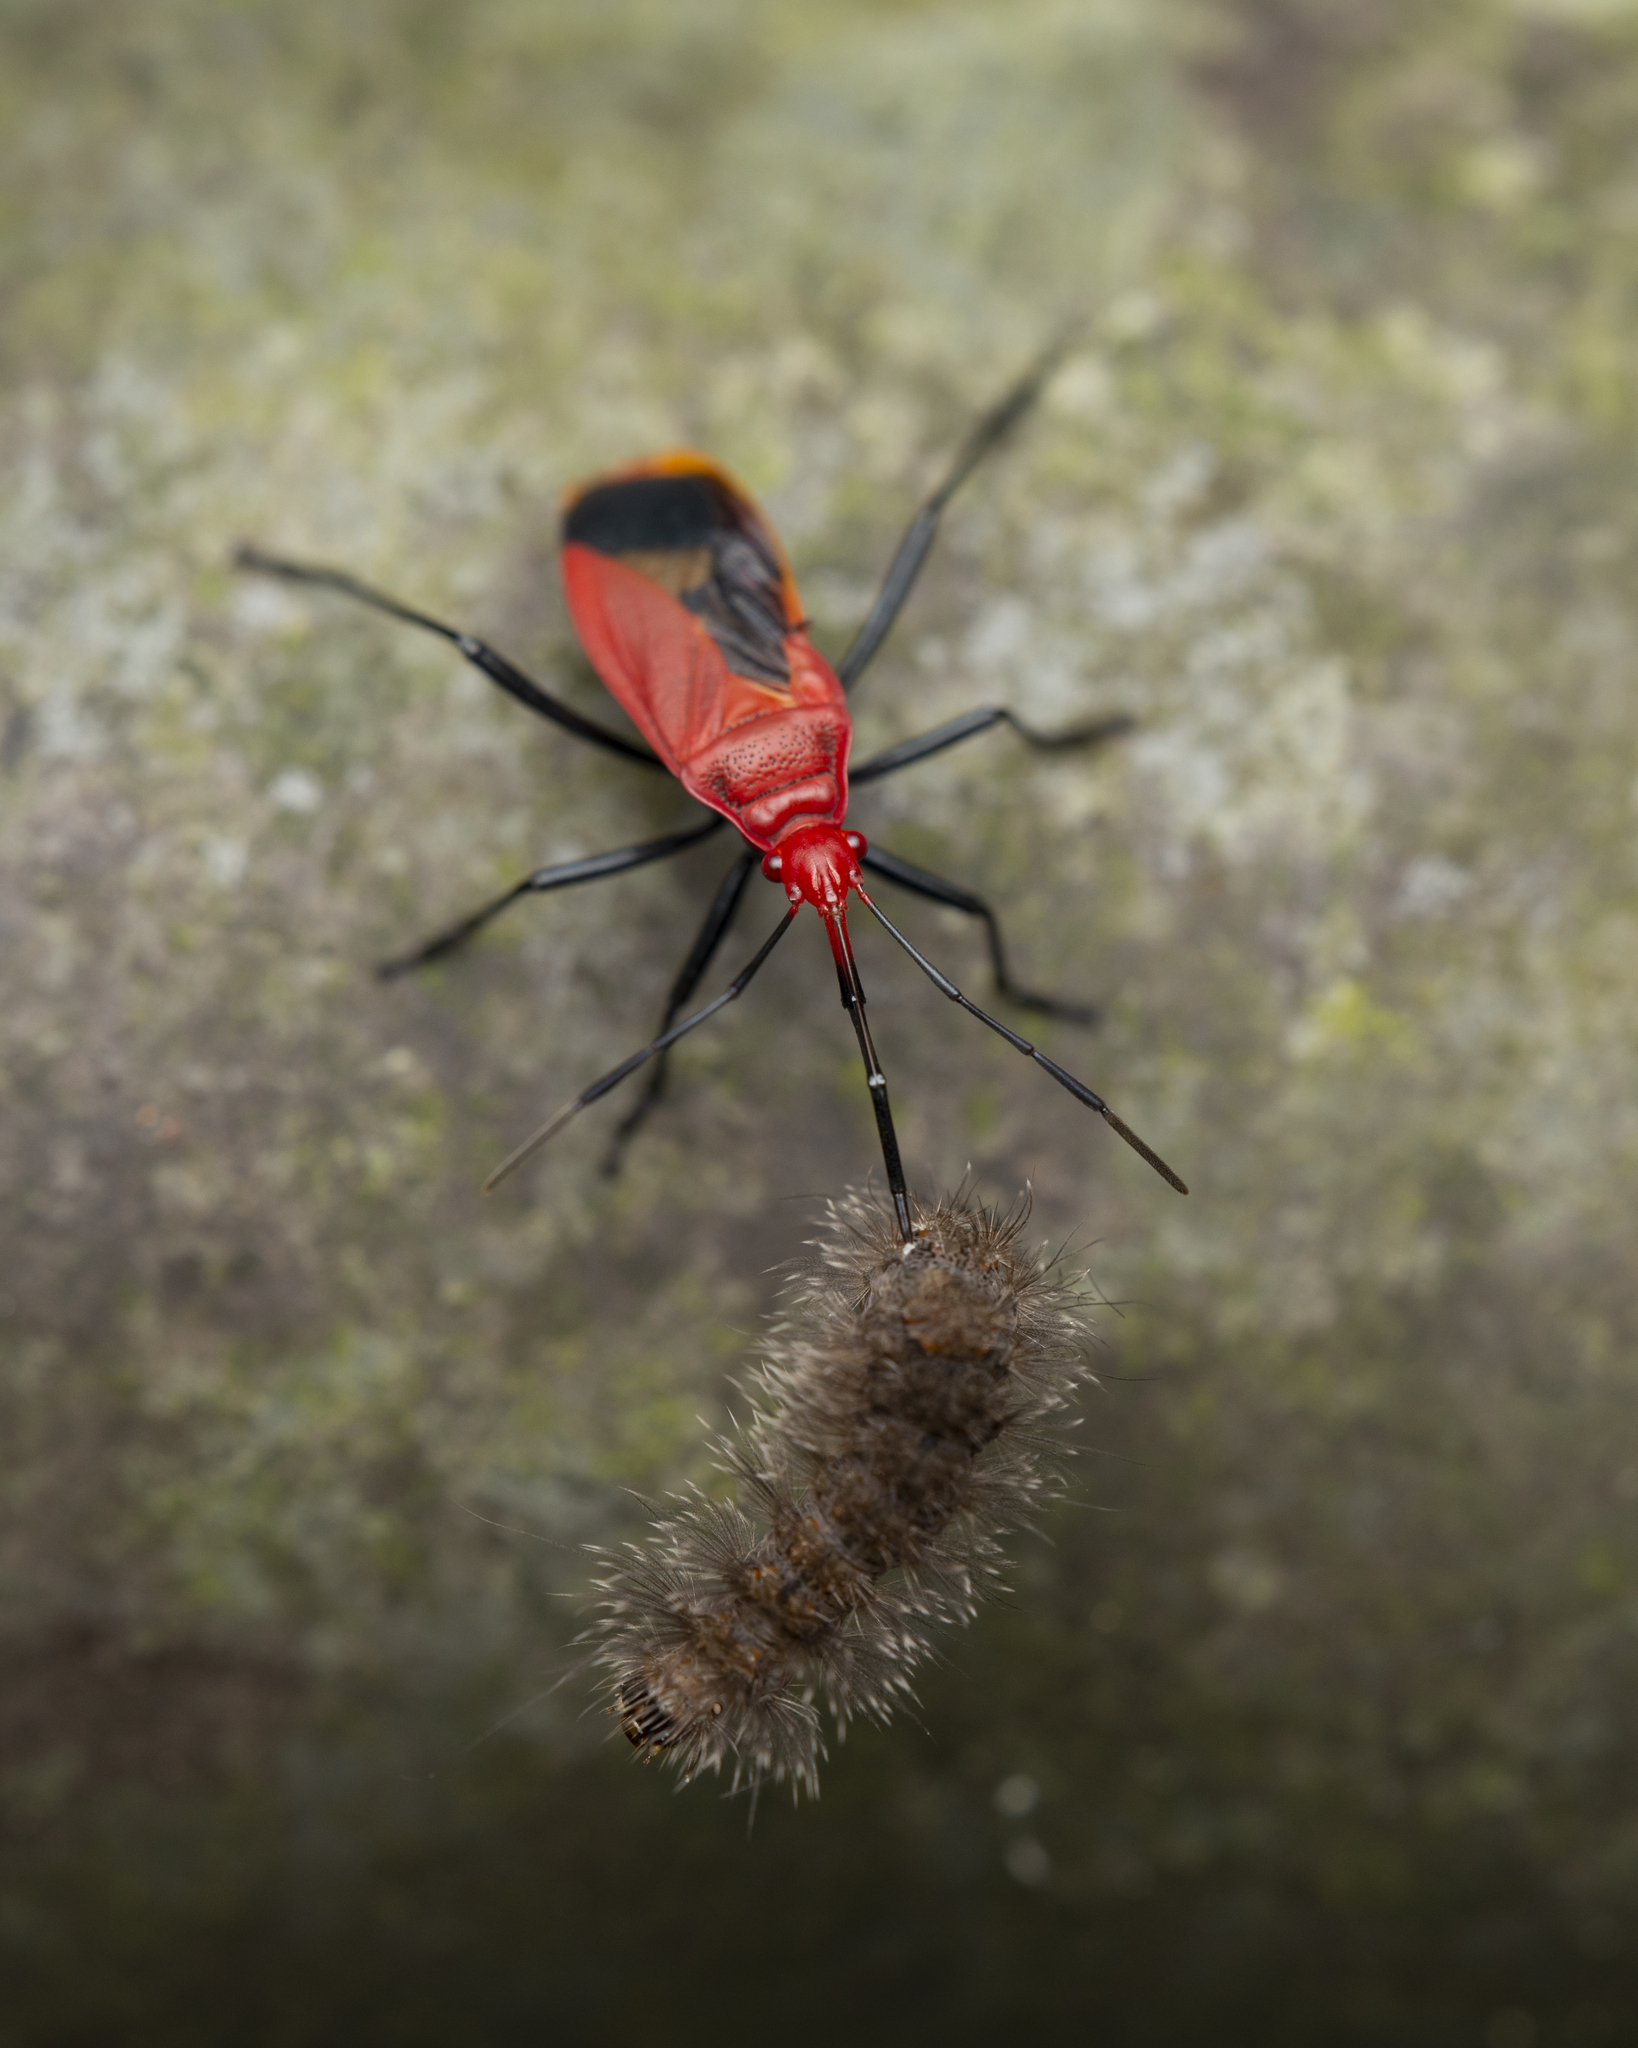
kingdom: Animalia
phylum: Arthropoda
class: Insecta
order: Hemiptera
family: Pyrrhocoridae
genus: Dindymus
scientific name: Dindymus
